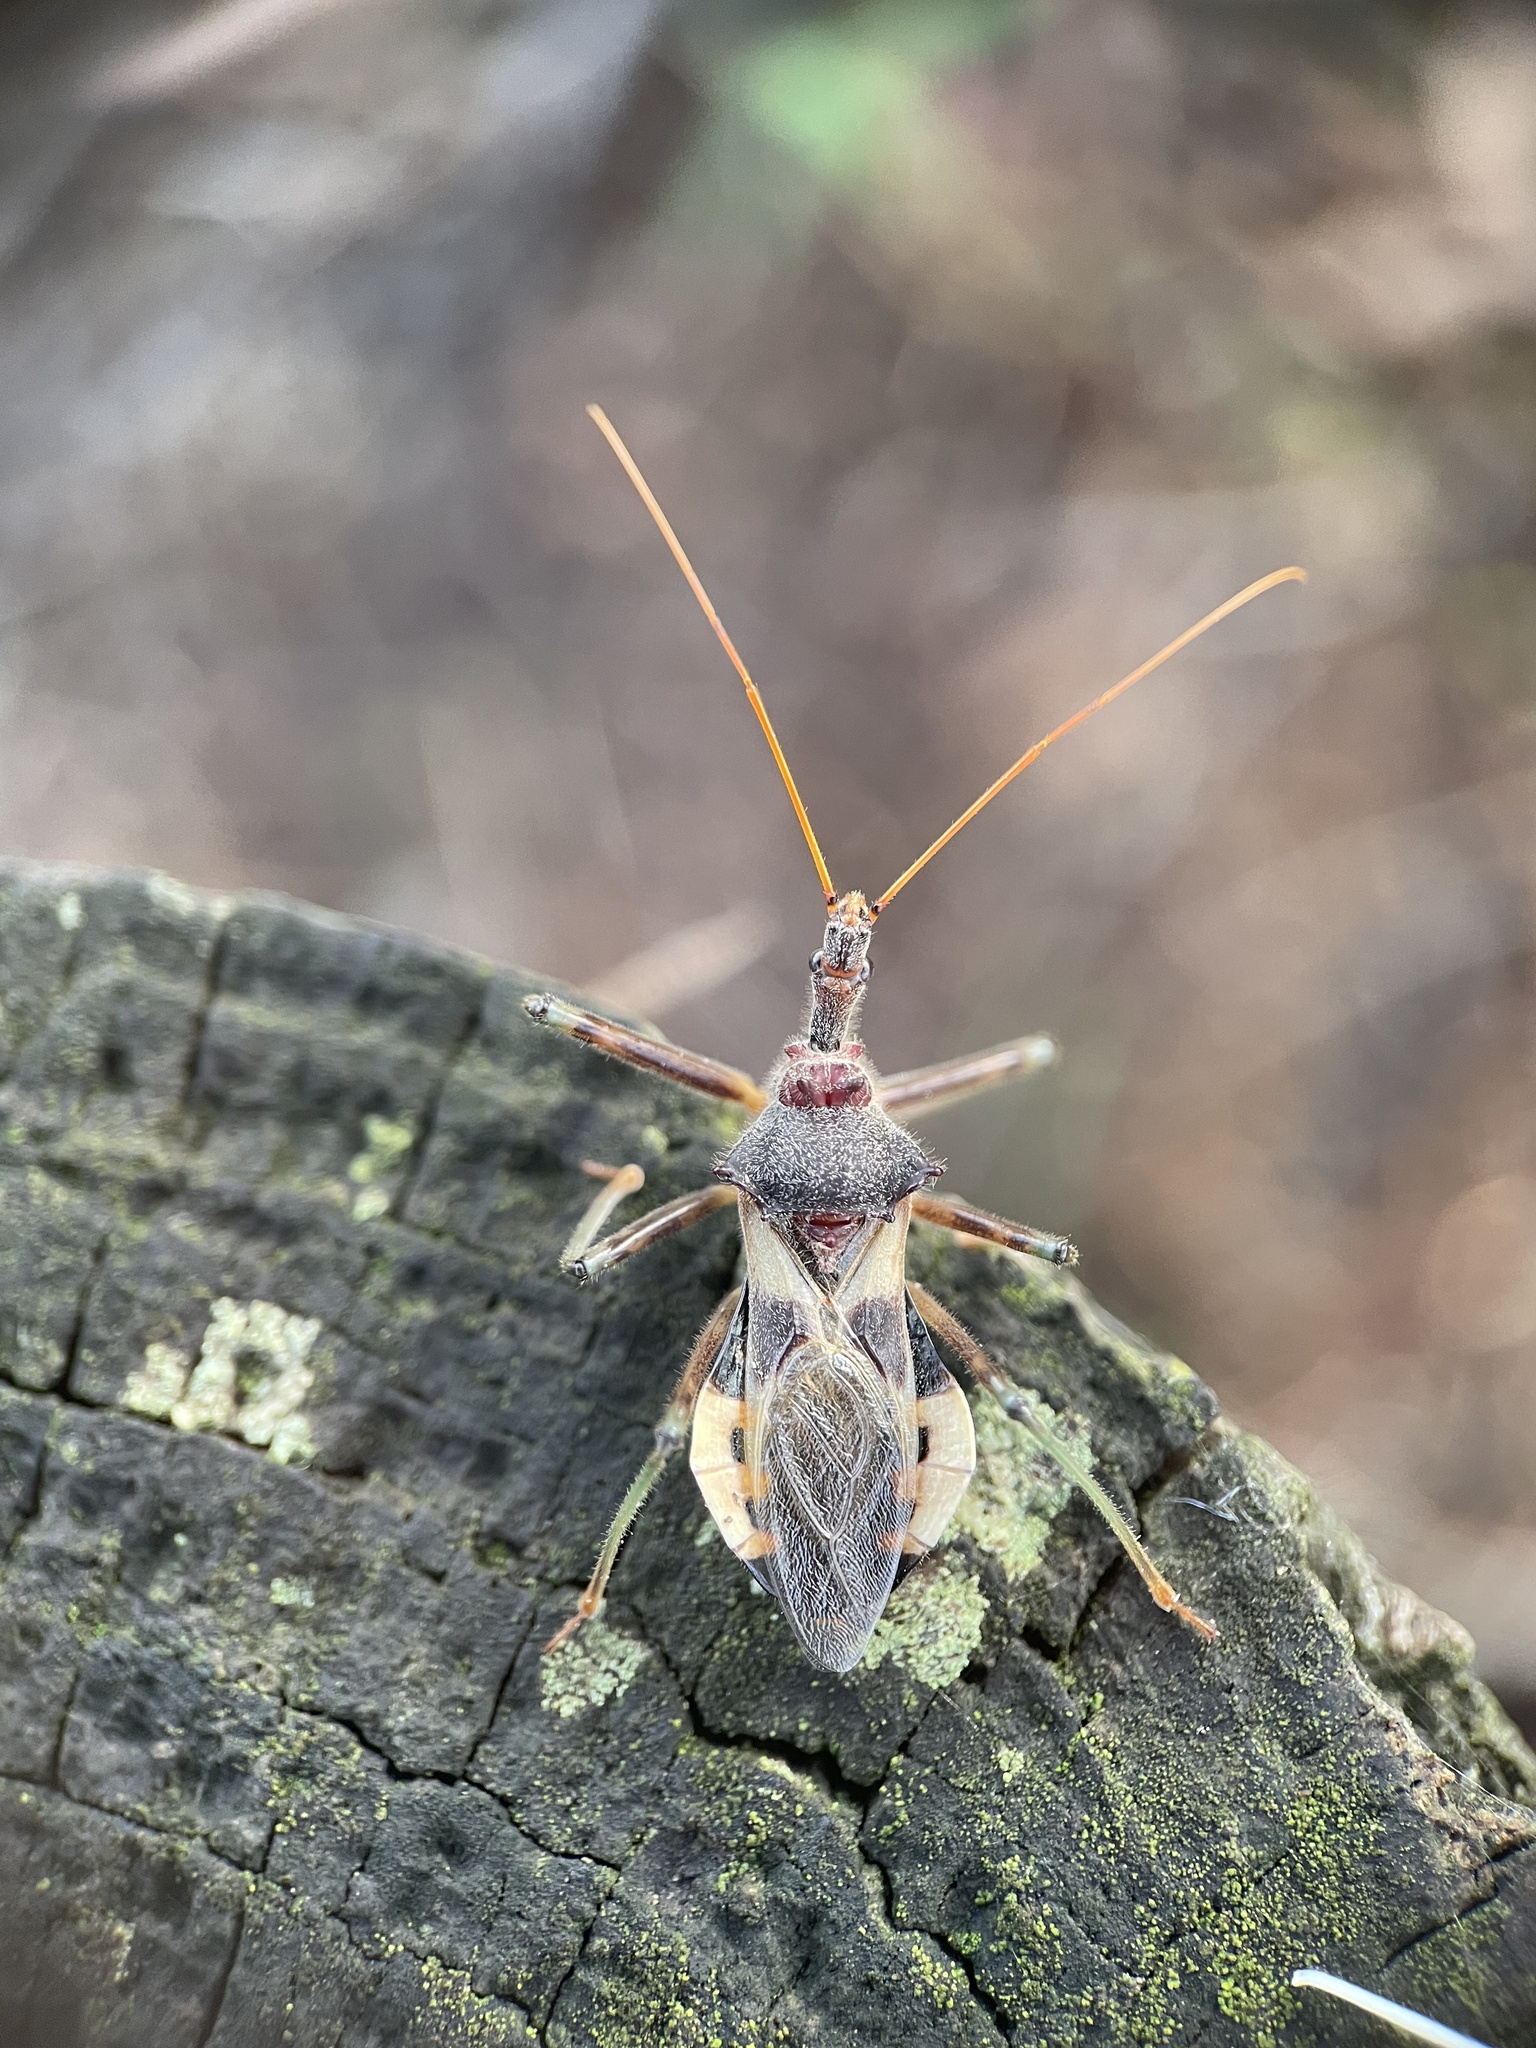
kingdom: Animalia
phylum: Arthropoda
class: Insecta
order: Hemiptera
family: Reduviidae
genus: Pristhesancus
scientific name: Pristhesancus plagipennis
